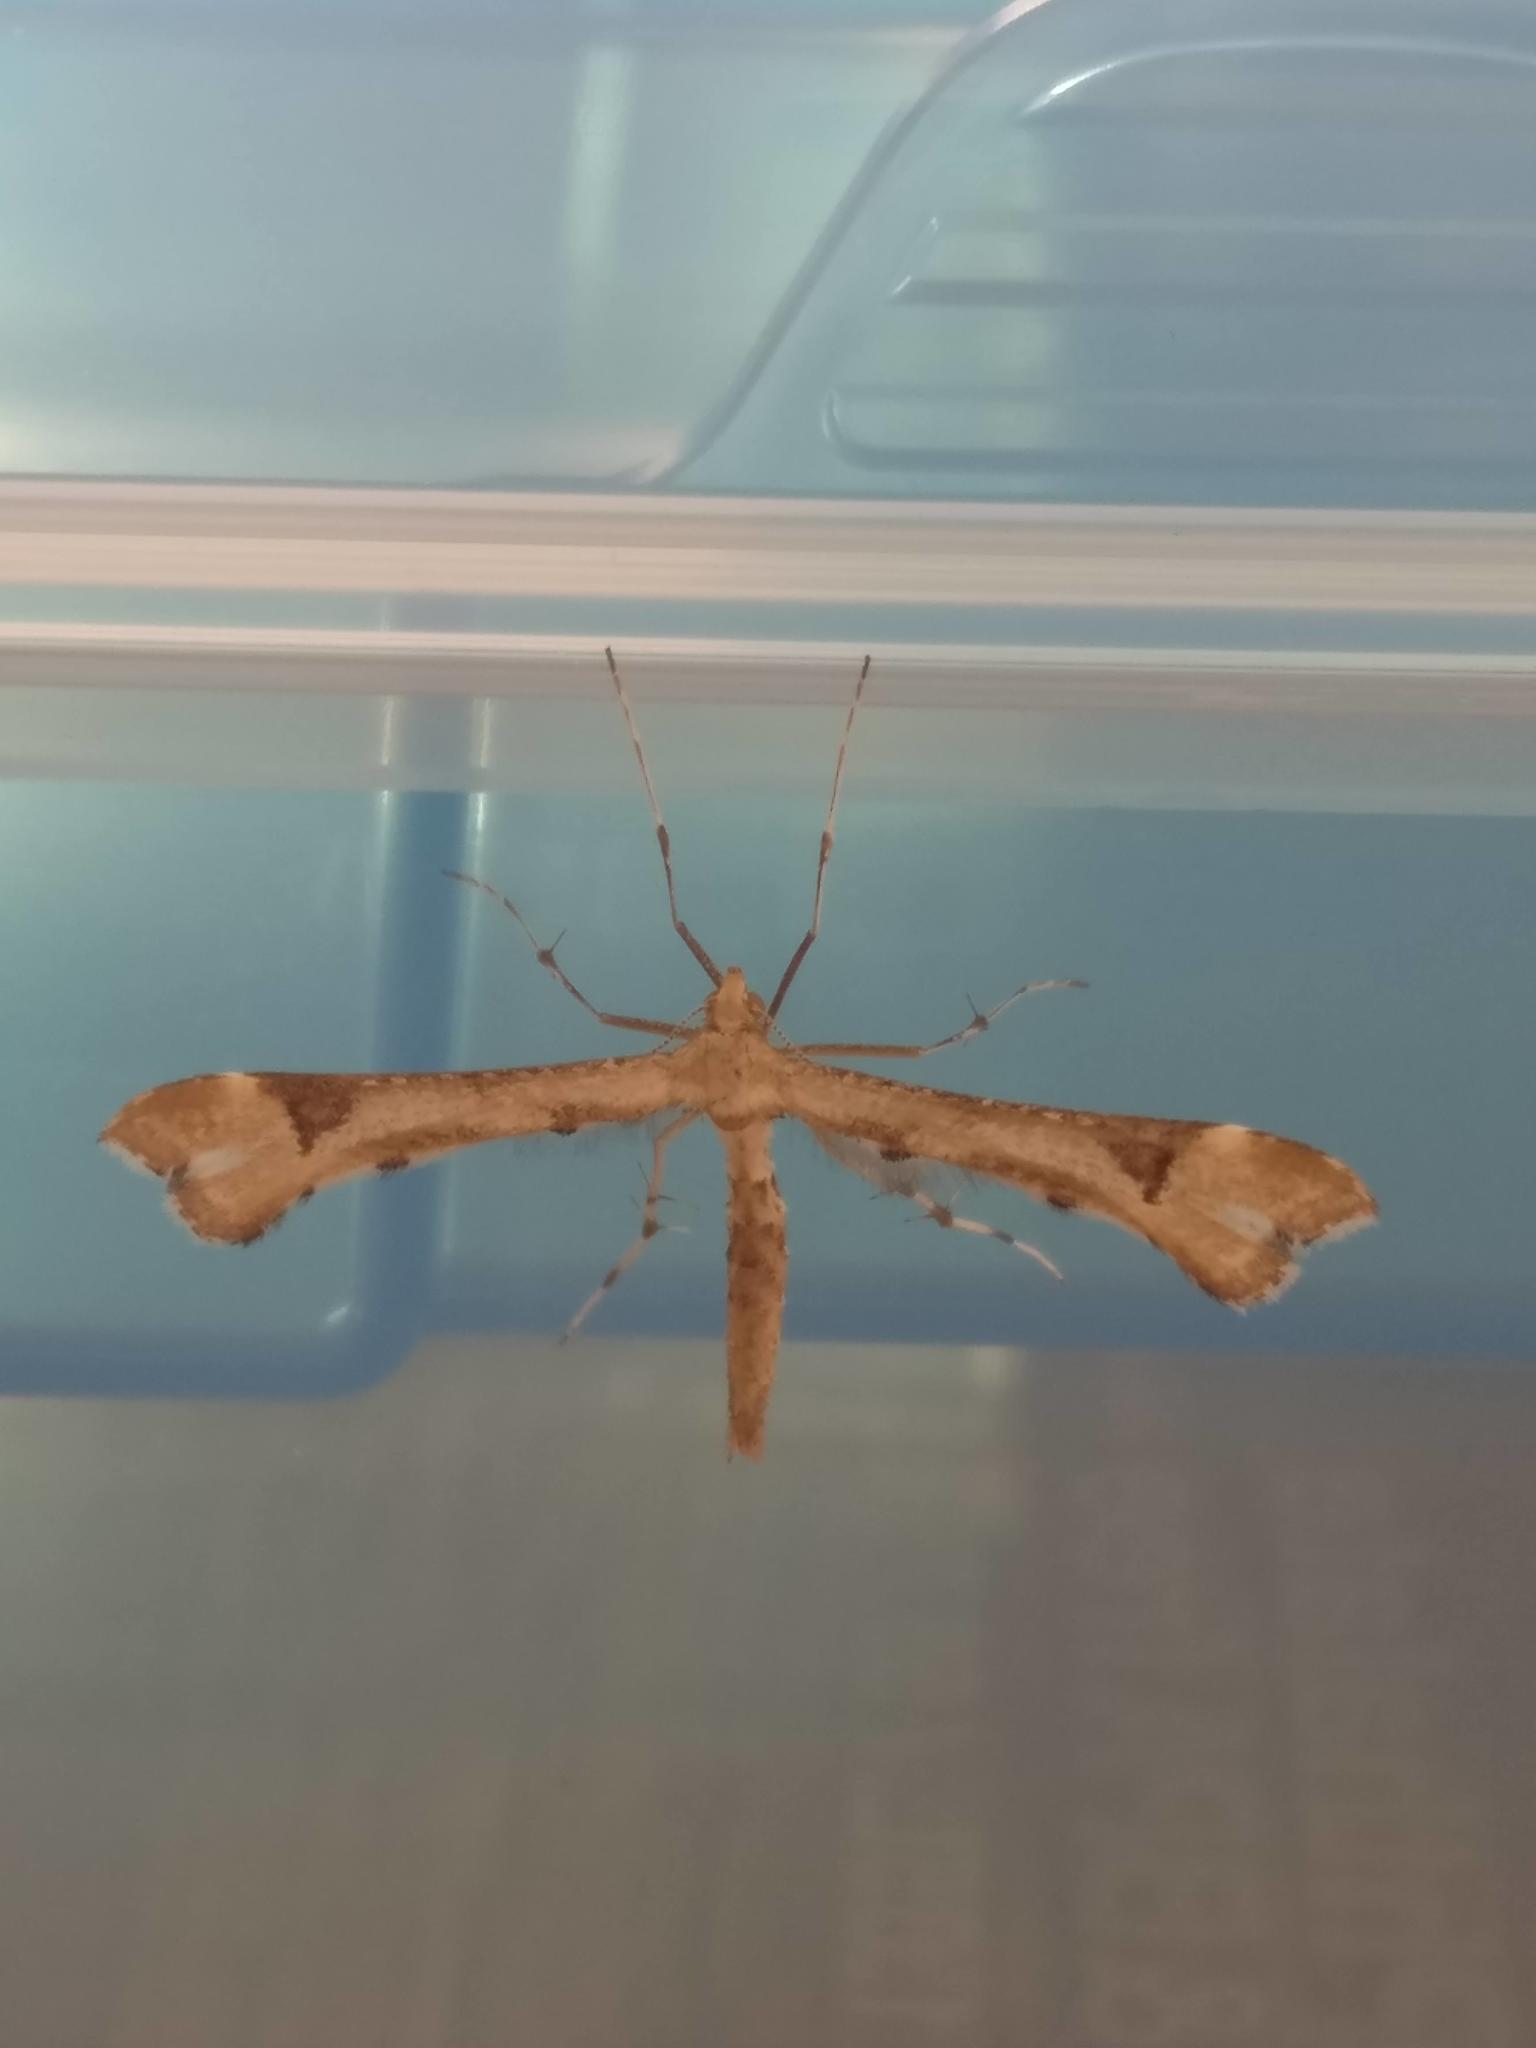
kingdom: Animalia
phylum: Arthropoda
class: Insecta
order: Lepidoptera
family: Pterophoridae
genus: Platyptilia
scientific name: Platyptilia gonodactyla
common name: Triangle plume
